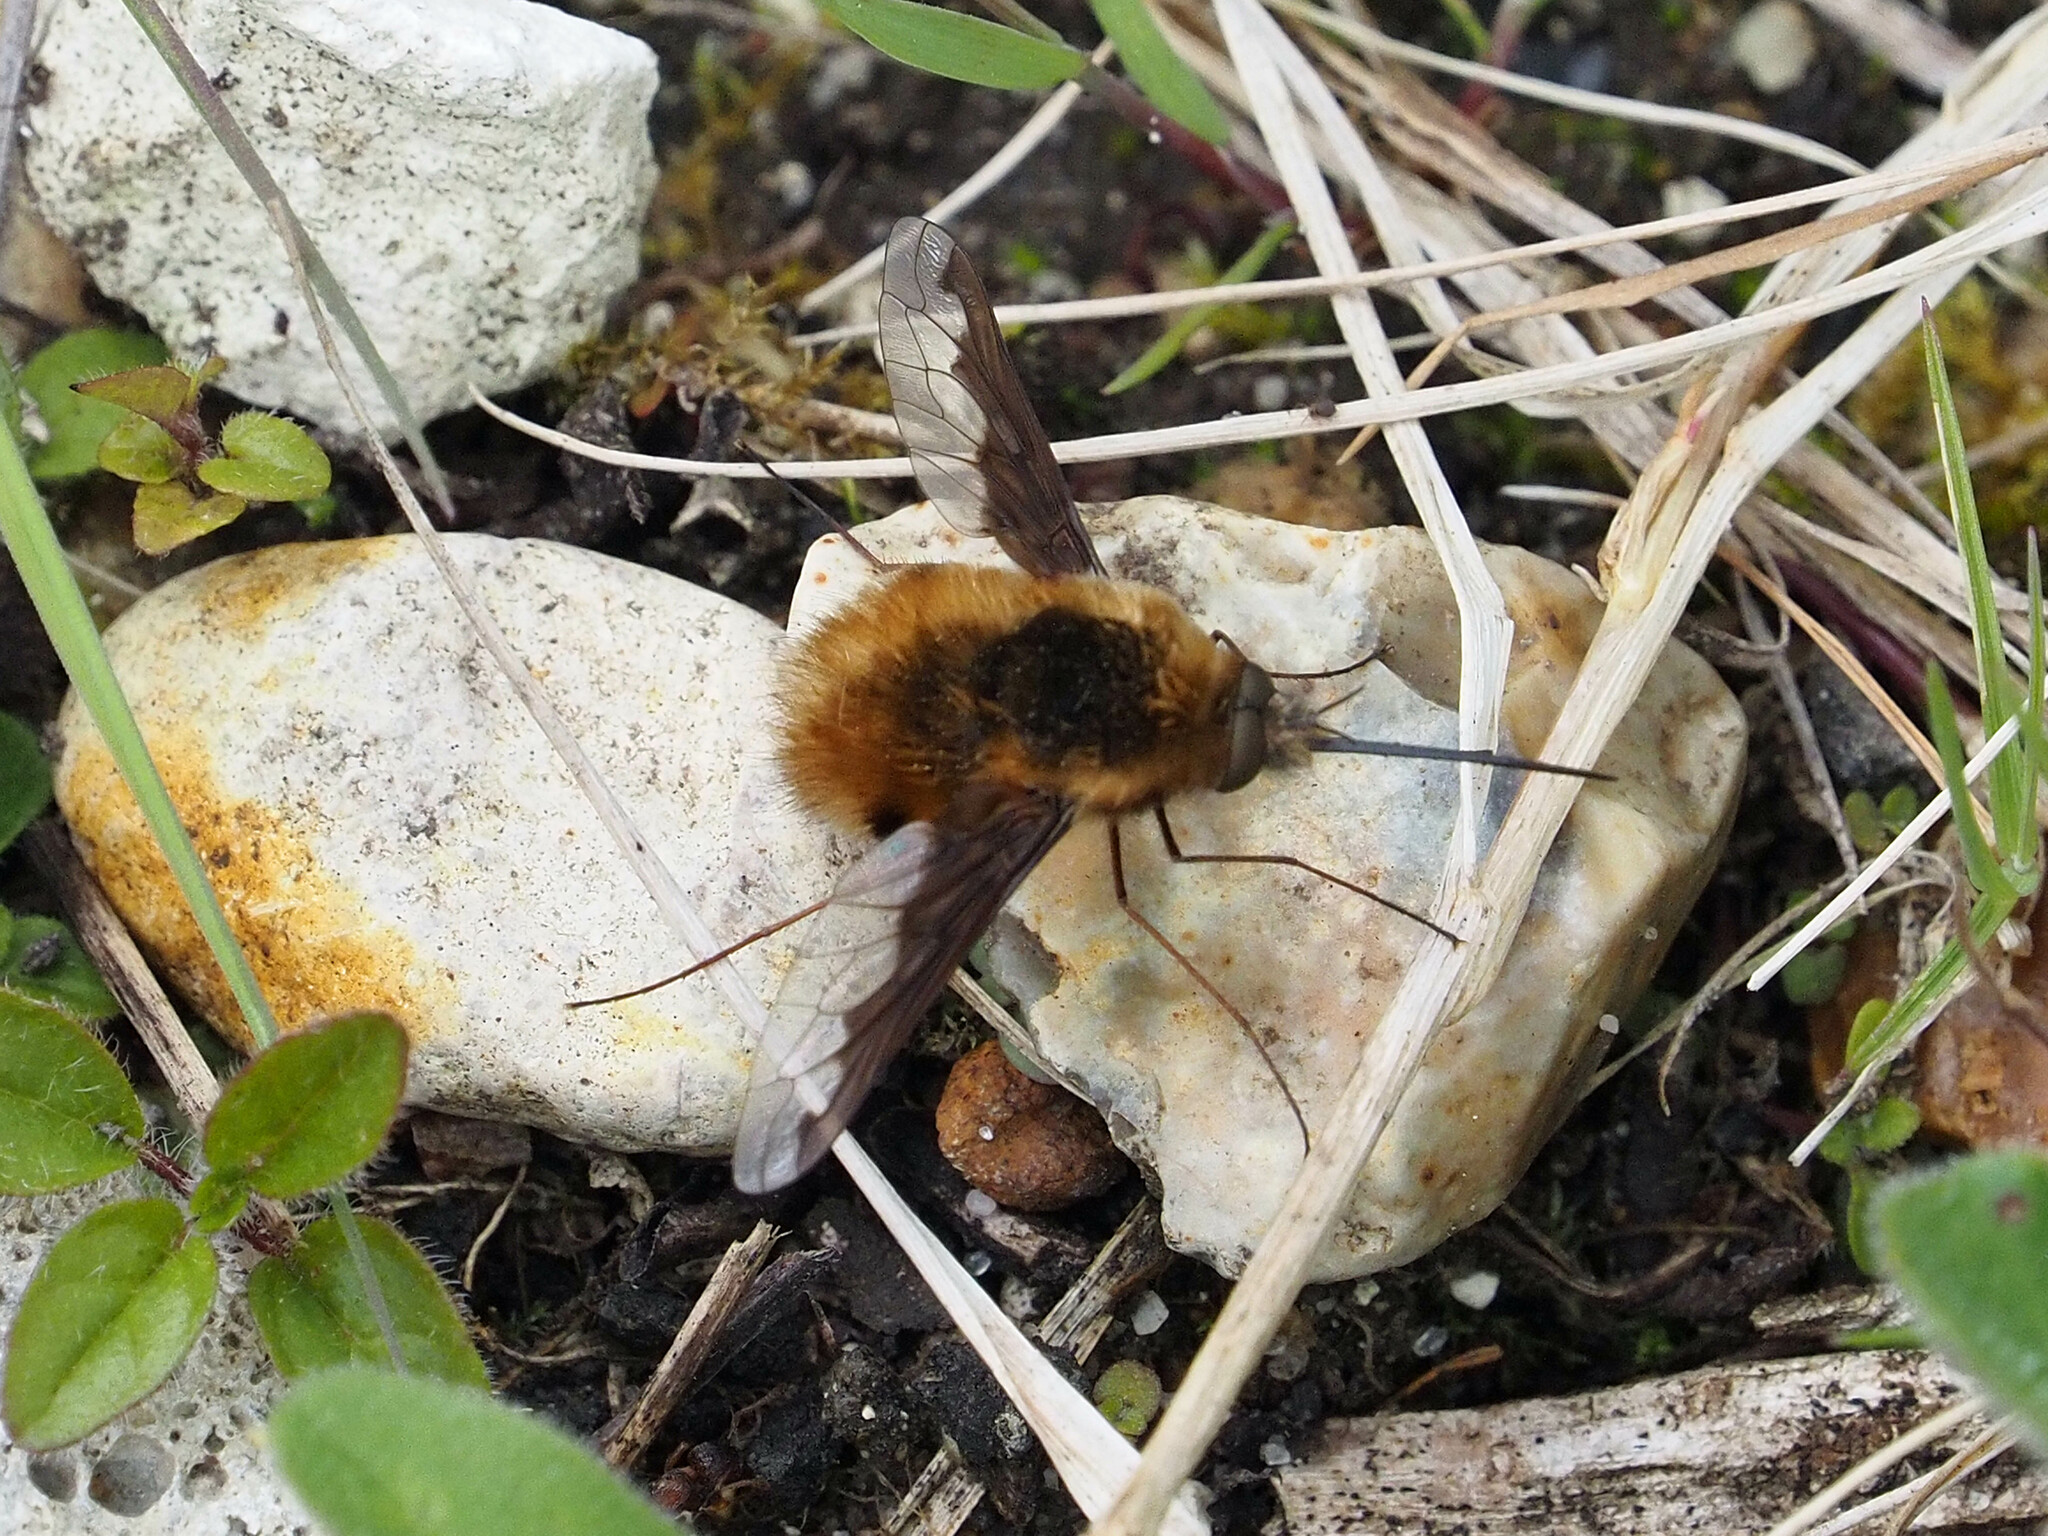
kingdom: Animalia
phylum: Arthropoda
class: Insecta
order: Diptera
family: Bombyliidae
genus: Bombylius
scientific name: Bombylius major
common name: Bee fly
